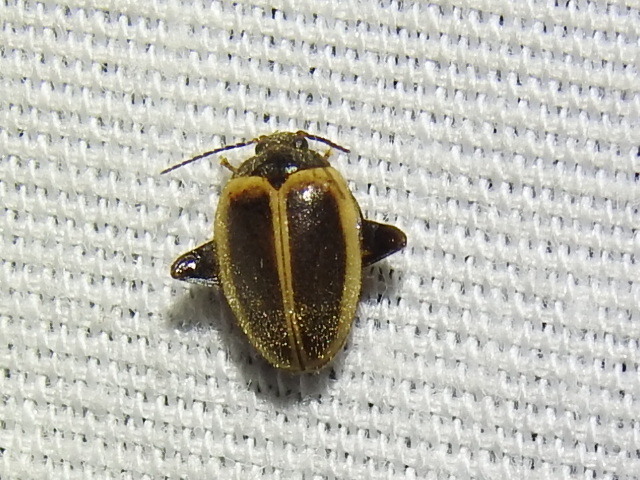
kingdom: Animalia
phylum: Arthropoda
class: Insecta
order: Coleoptera
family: Scirtidae
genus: Ora
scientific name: Ora discoidea
